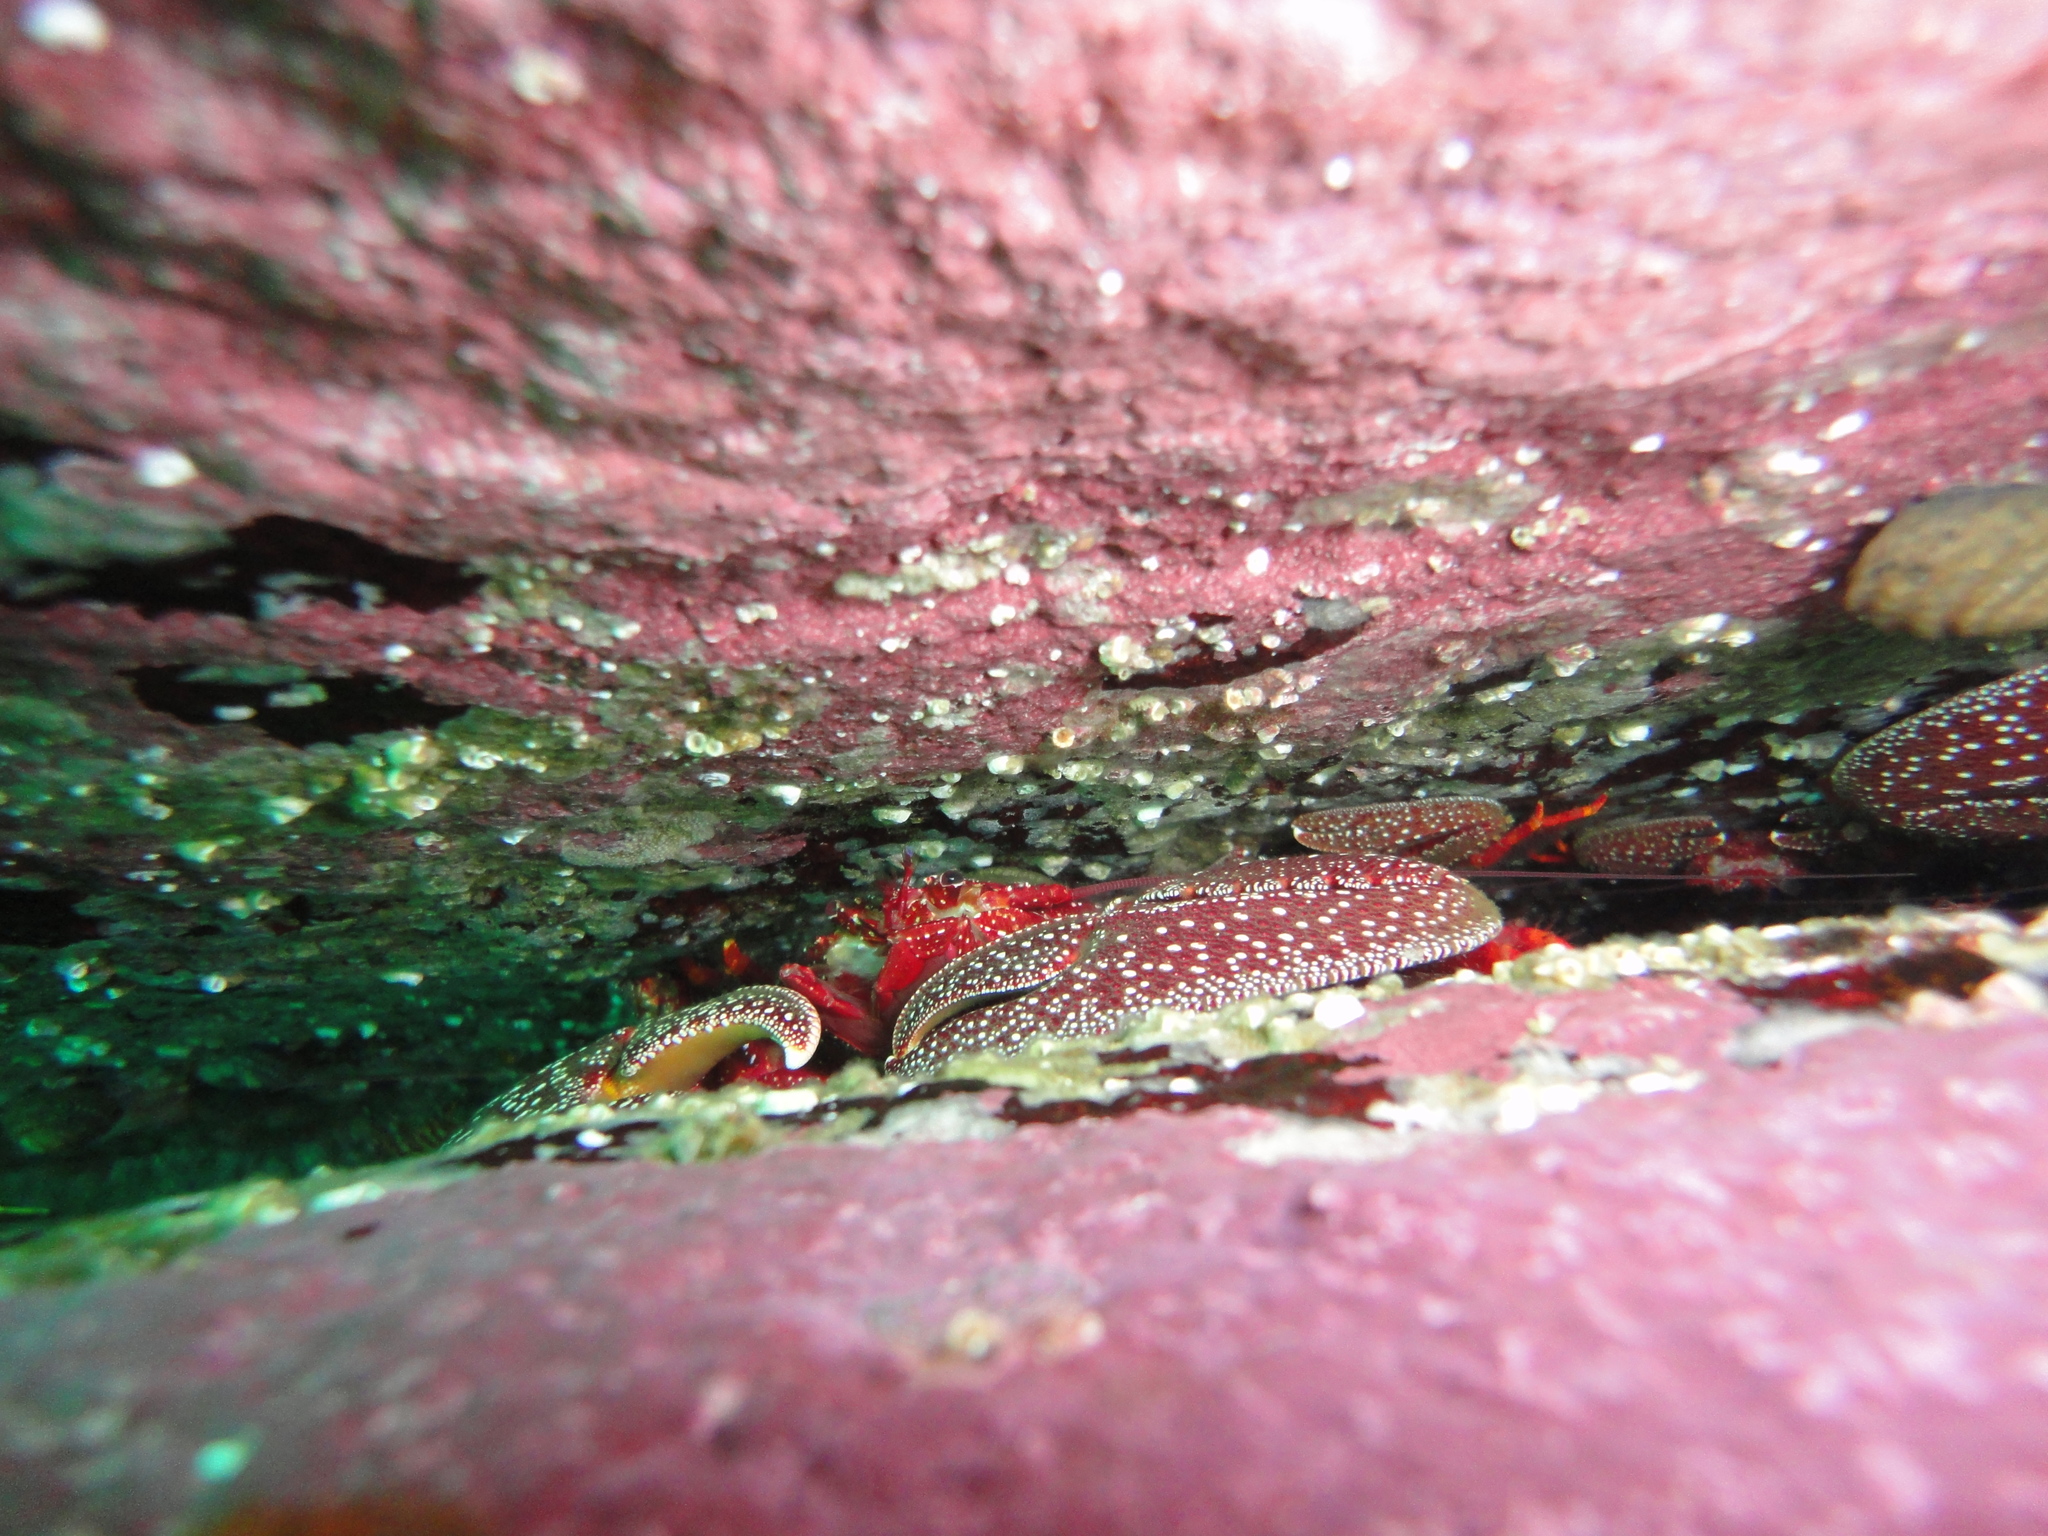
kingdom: Animalia
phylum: Arthropoda
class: Malacostraca
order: Decapoda
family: Porcellanidae
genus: Petrolisthes
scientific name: Petrolisthes desmarestii
